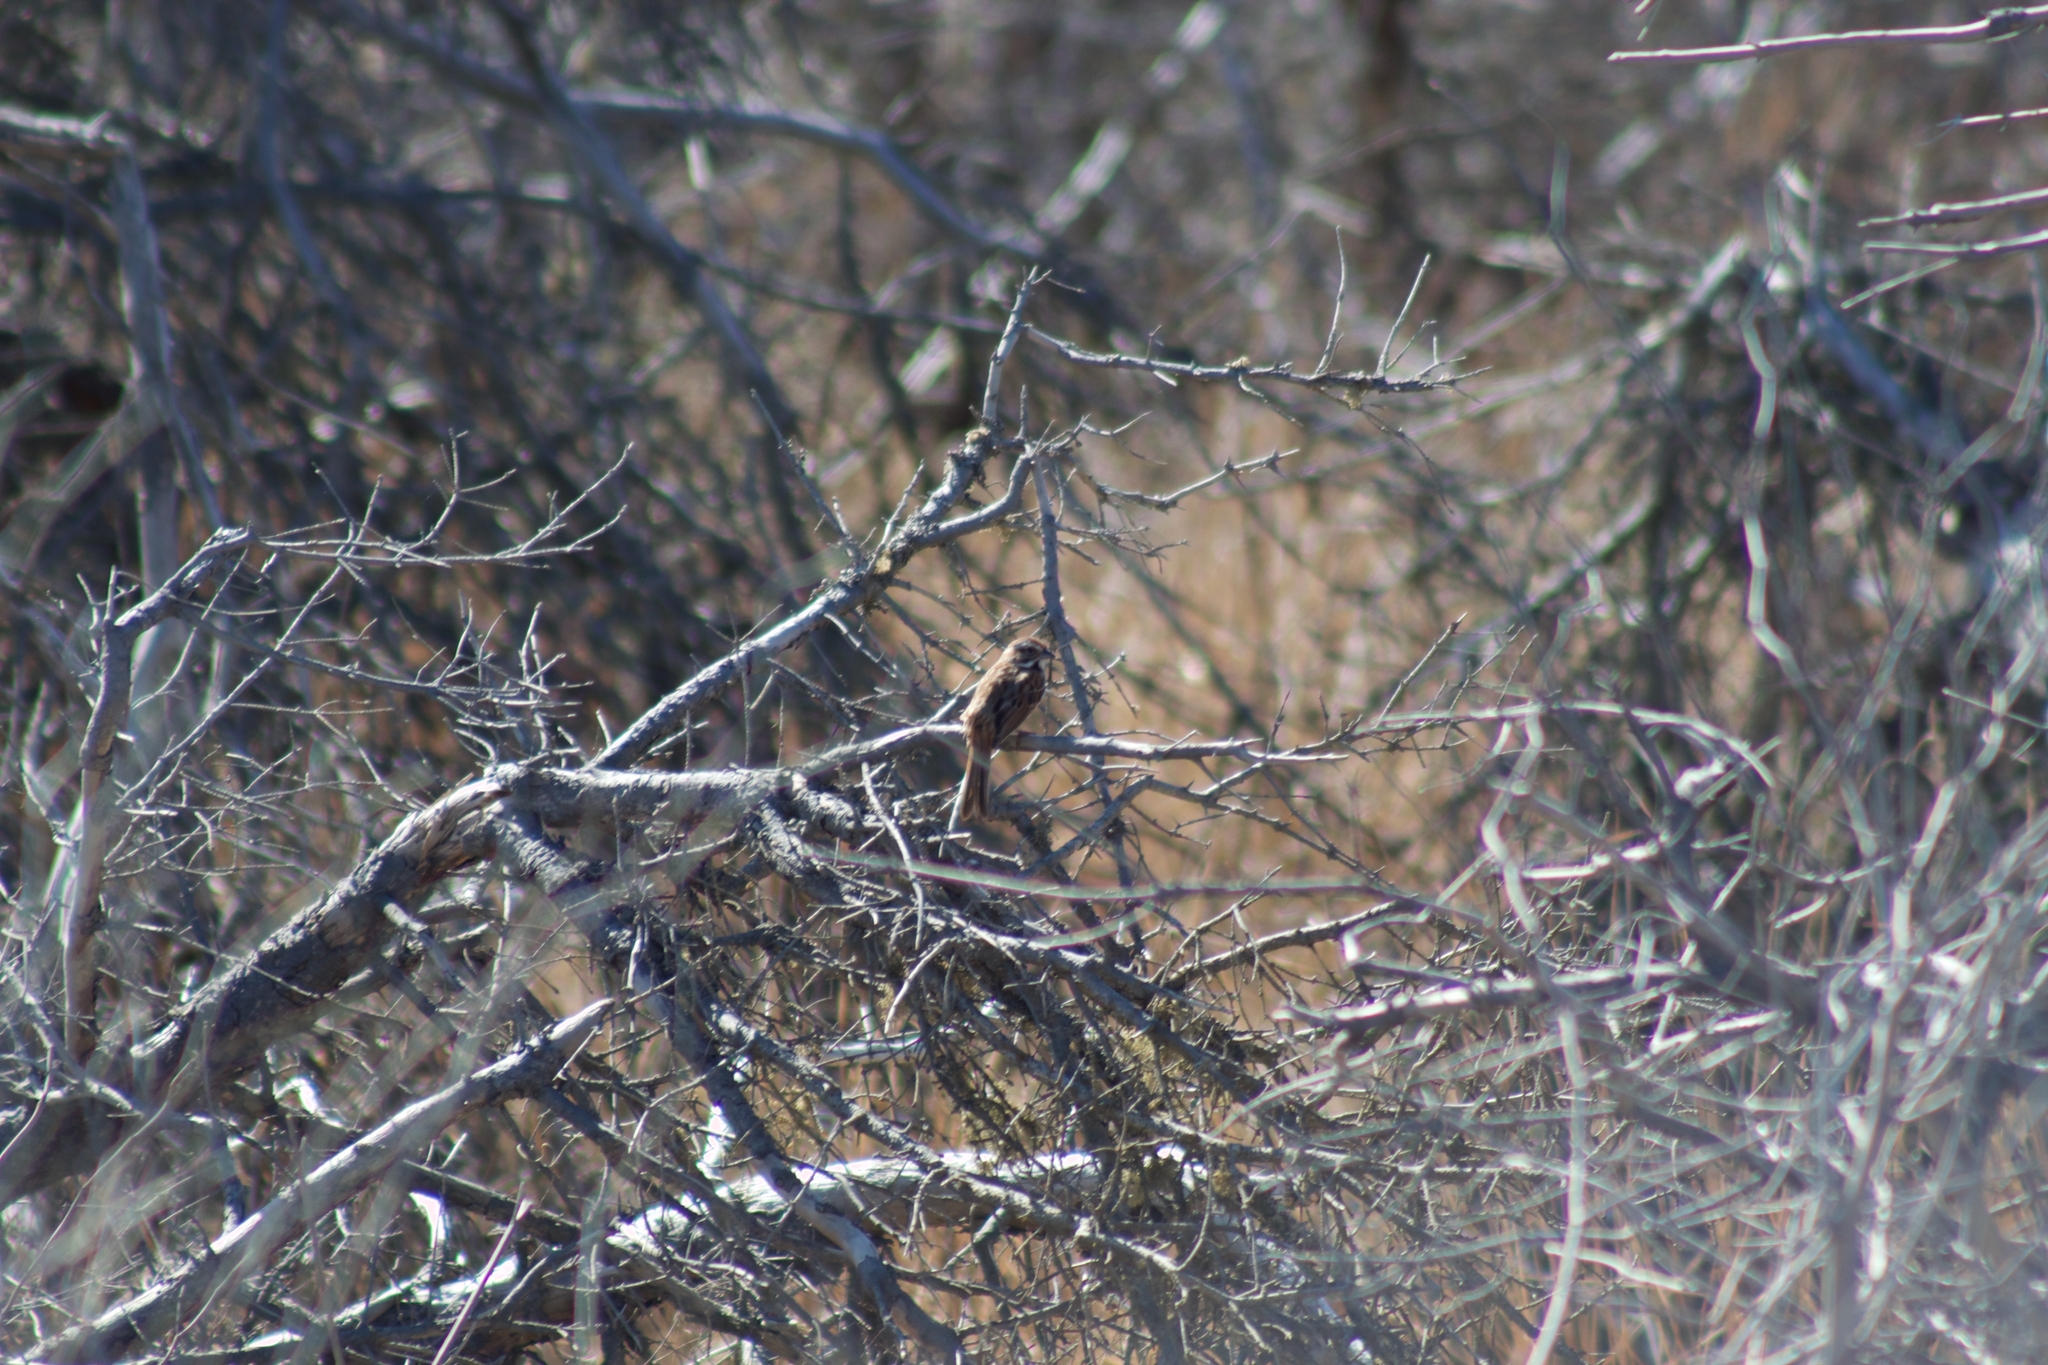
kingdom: Animalia
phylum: Chordata
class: Aves
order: Passeriformes
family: Passerellidae
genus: Melospiza
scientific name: Melospiza melodia
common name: Song sparrow
